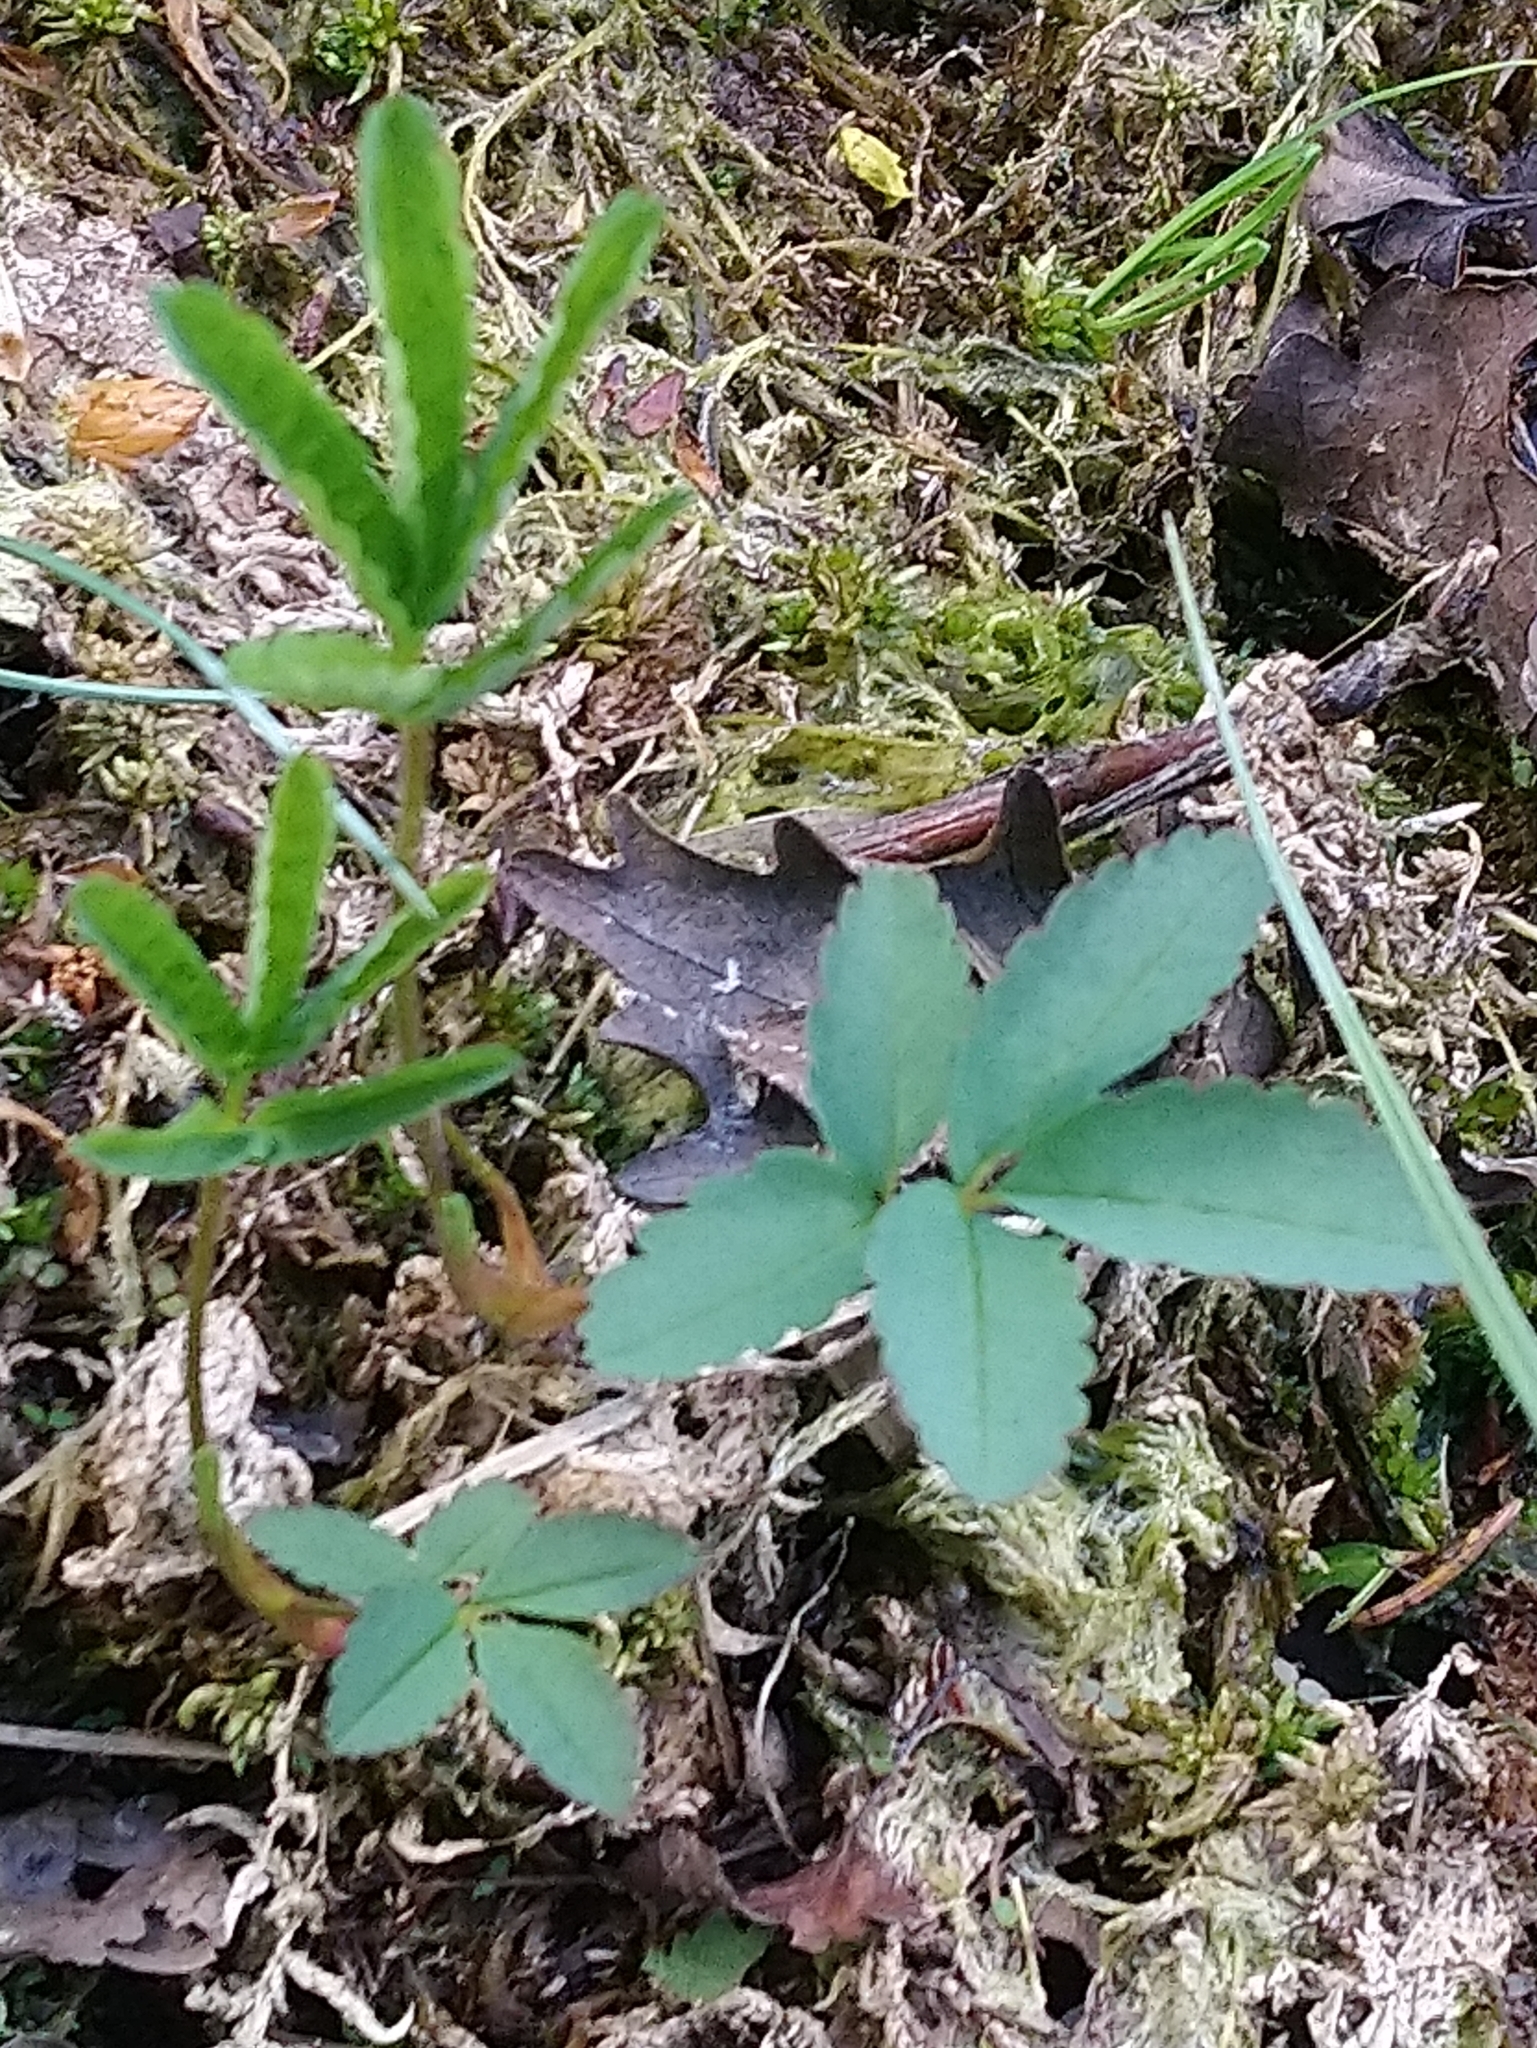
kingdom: Plantae
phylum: Tracheophyta
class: Magnoliopsida
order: Rosales
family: Rosaceae
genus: Comarum
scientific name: Comarum palustre
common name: Marsh cinquefoil
